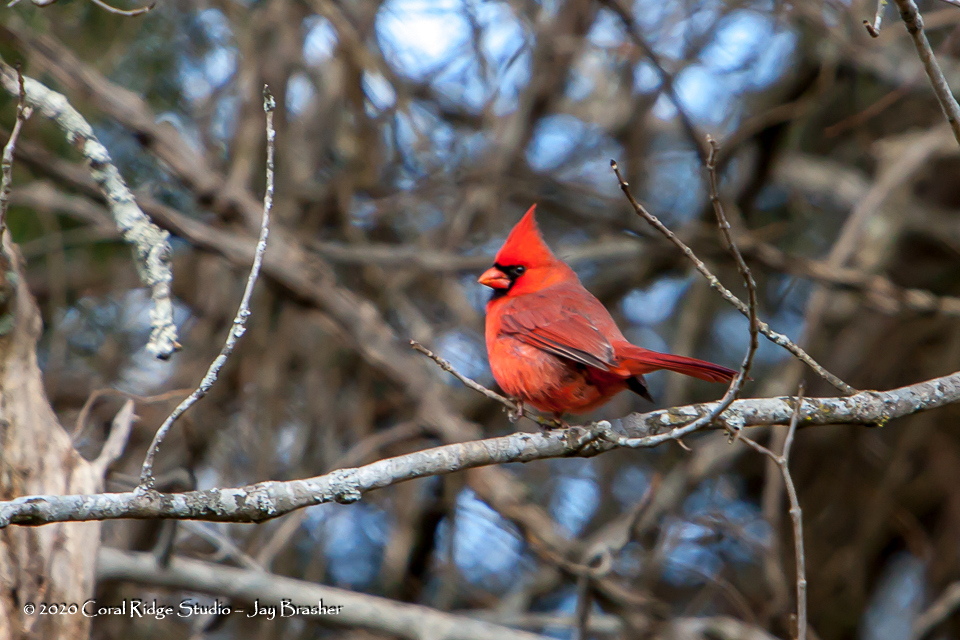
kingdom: Animalia
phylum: Chordata
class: Aves
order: Passeriformes
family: Cardinalidae
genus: Cardinalis
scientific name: Cardinalis cardinalis
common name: Northern cardinal
